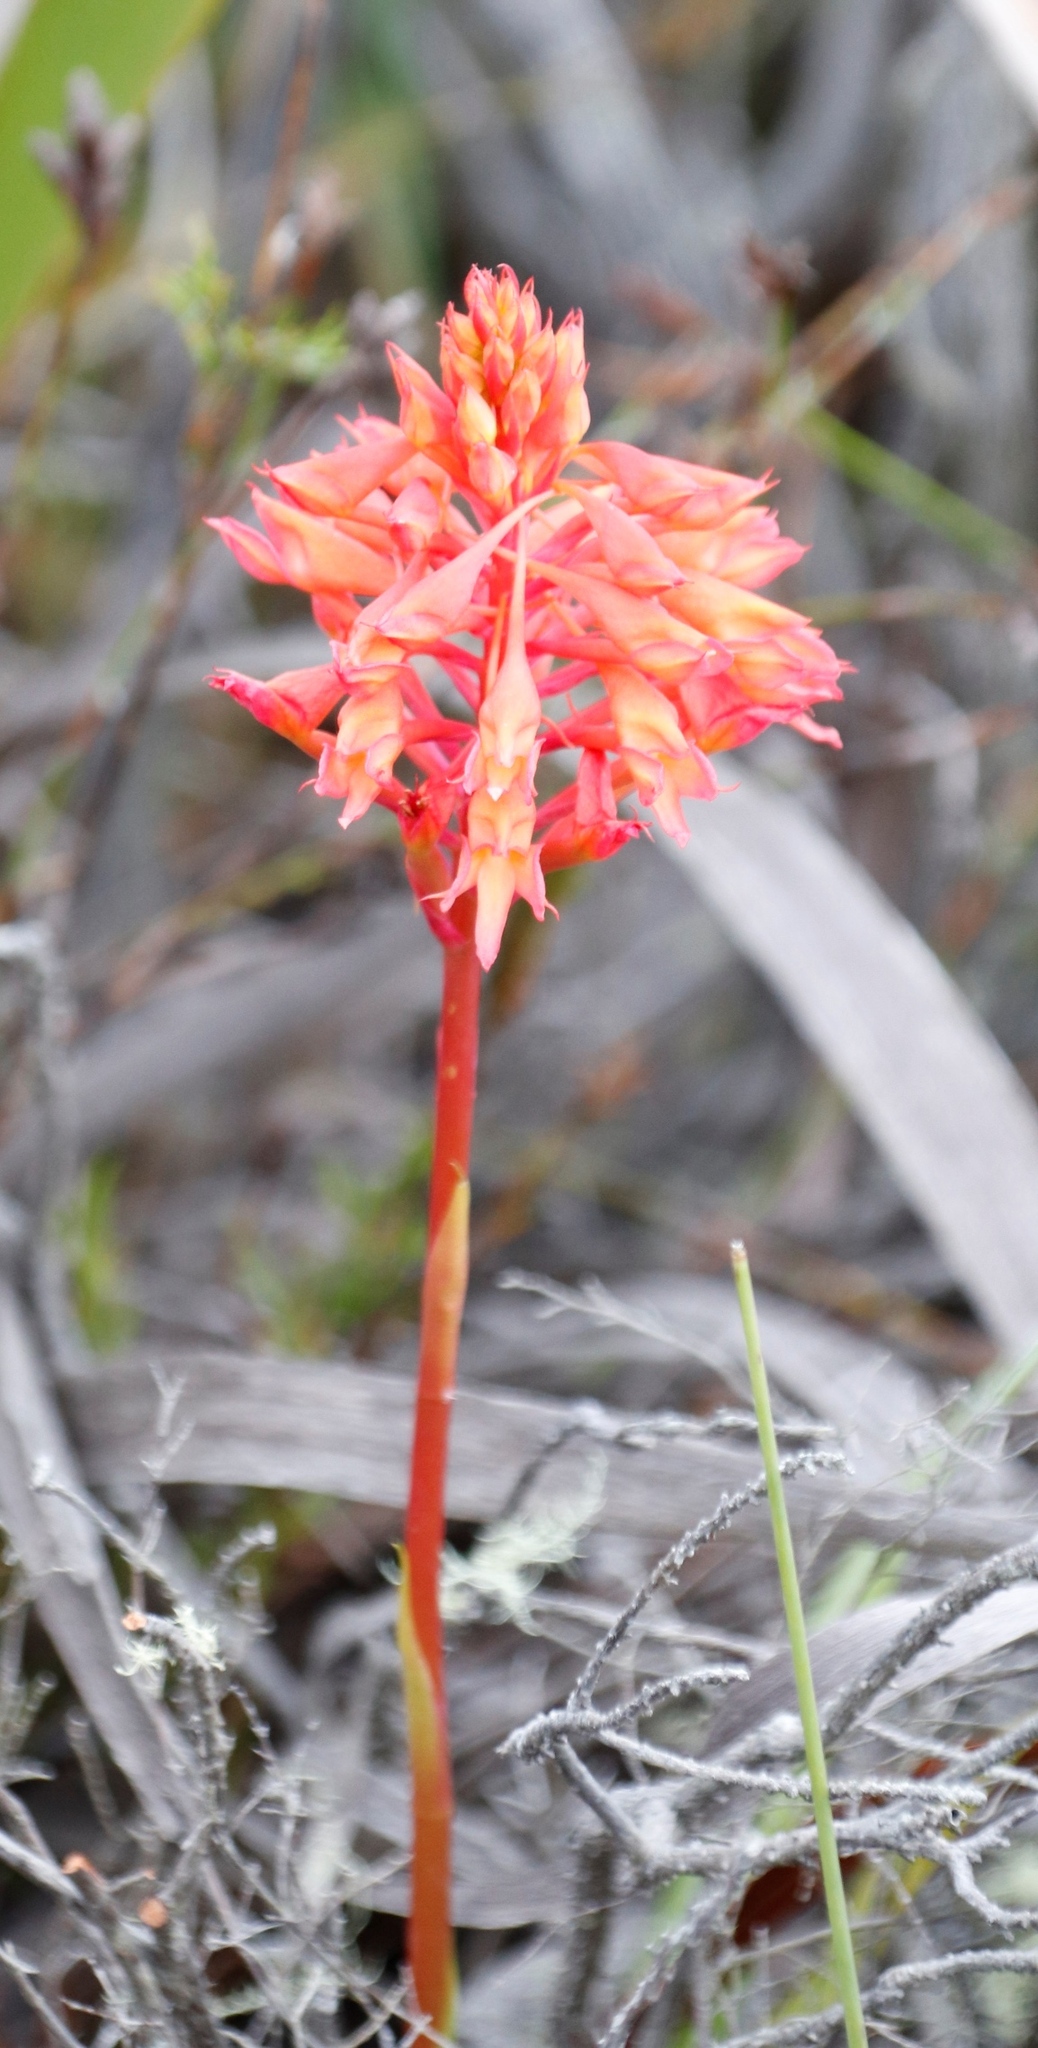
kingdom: Plantae
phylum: Tracheophyta
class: Liliopsida
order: Asparagales
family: Orchidaceae
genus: Disa
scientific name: Disa ferruginea
